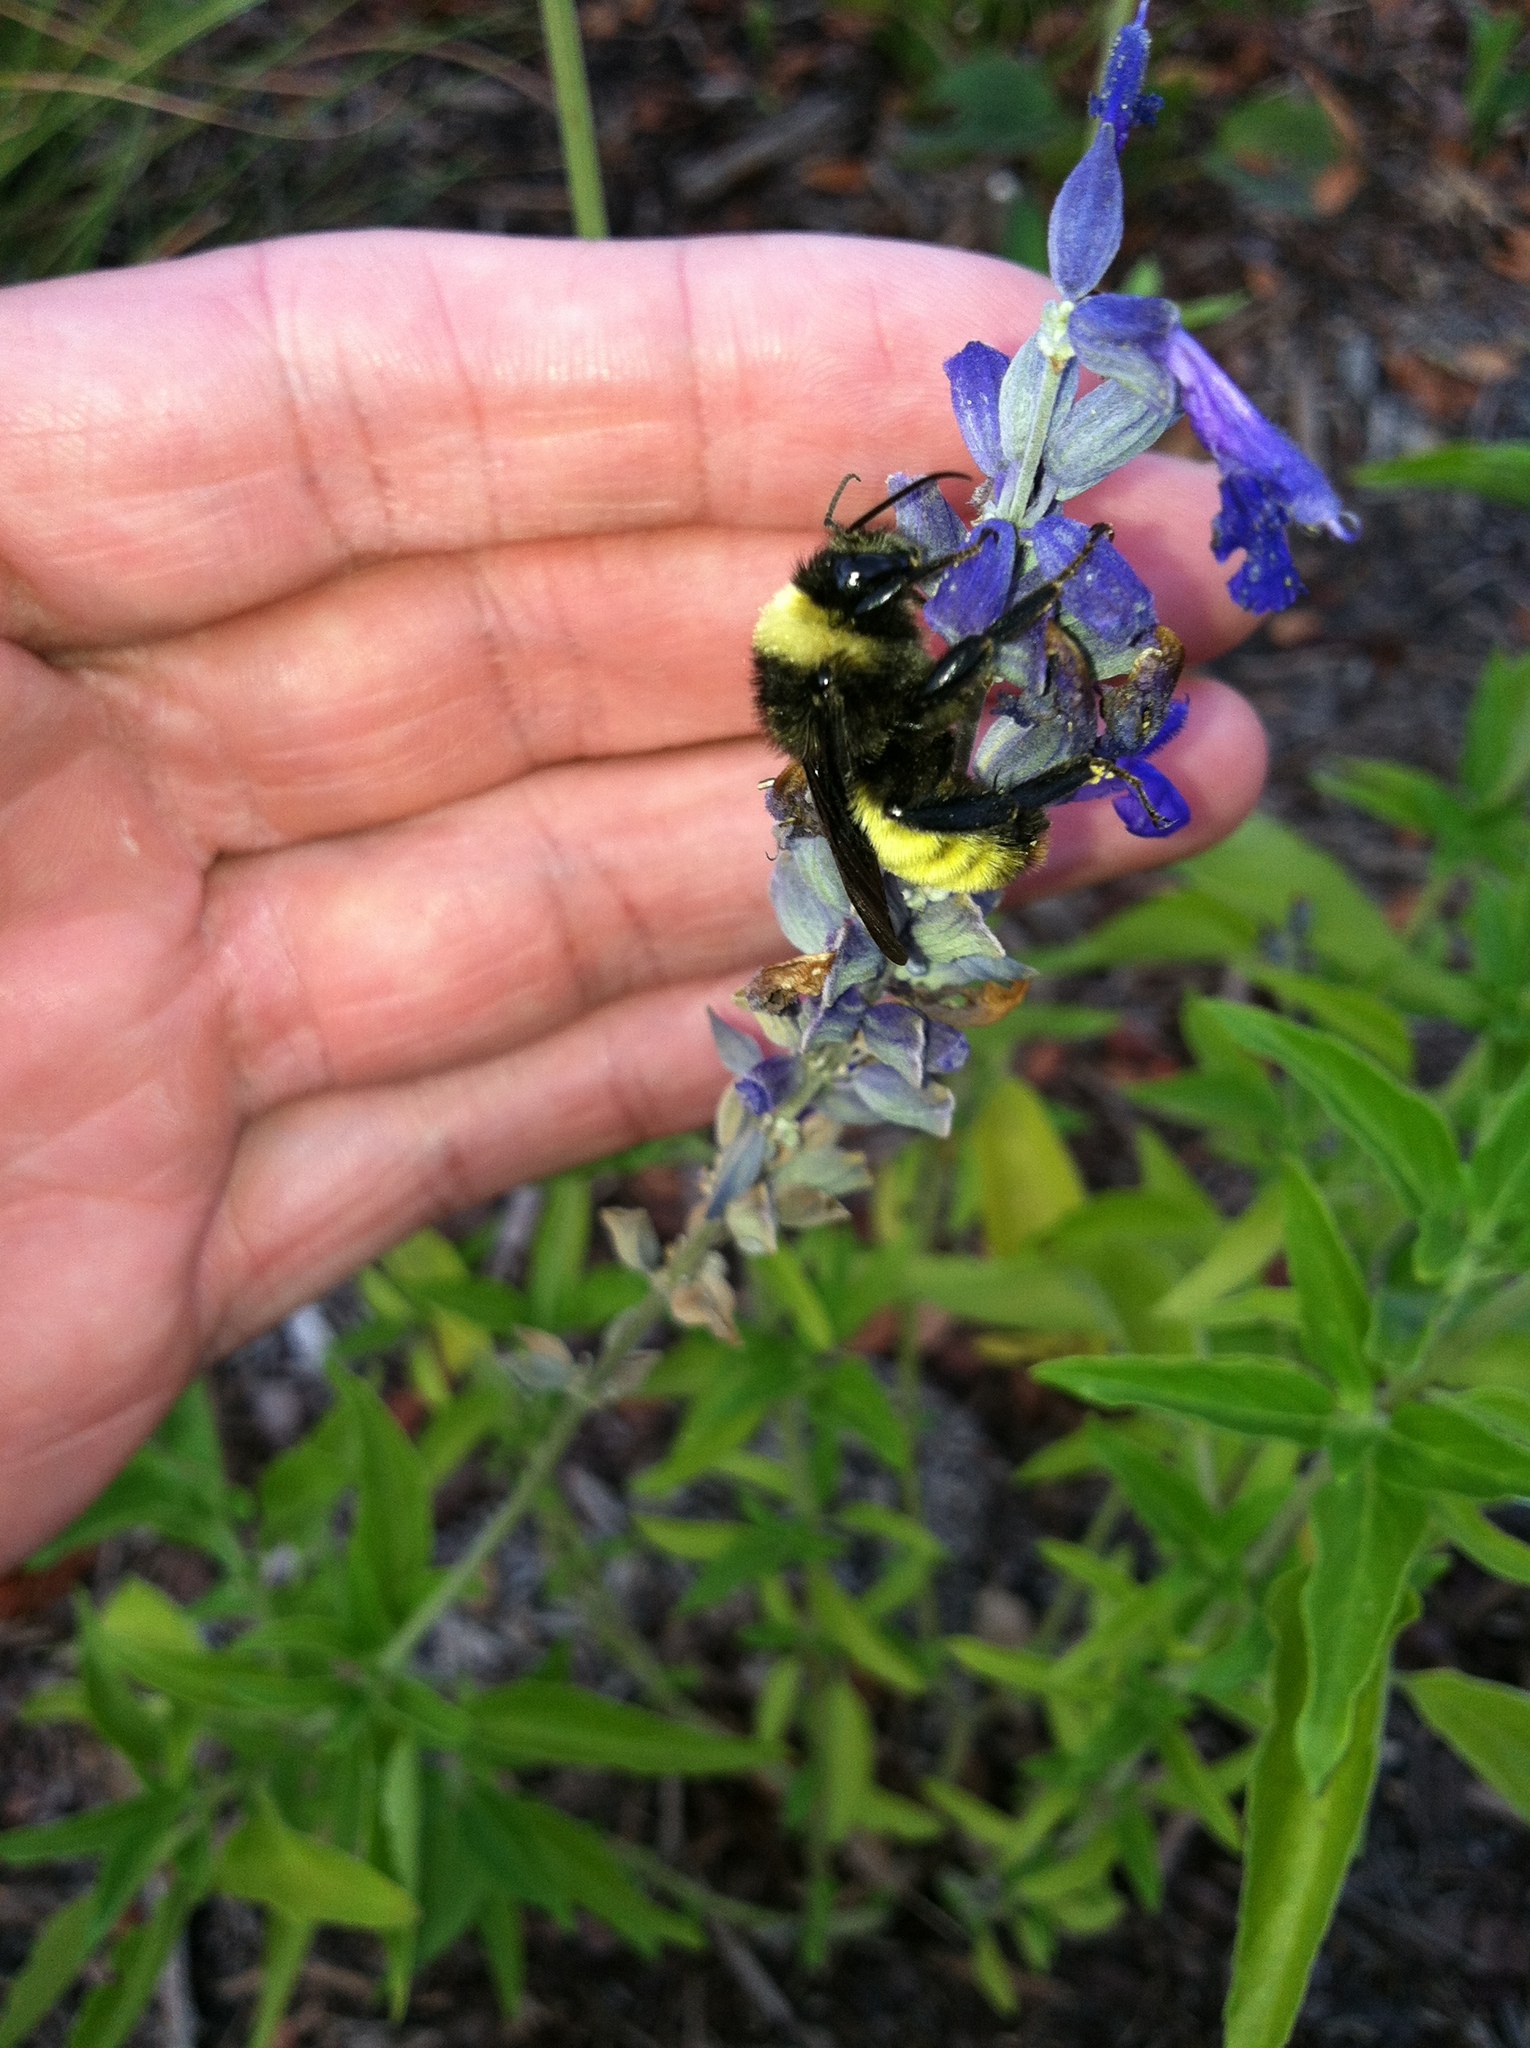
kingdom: Animalia
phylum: Arthropoda
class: Insecta
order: Hymenoptera
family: Apidae
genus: Bombus
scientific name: Bombus pensylvanicus
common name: Bumble bee
